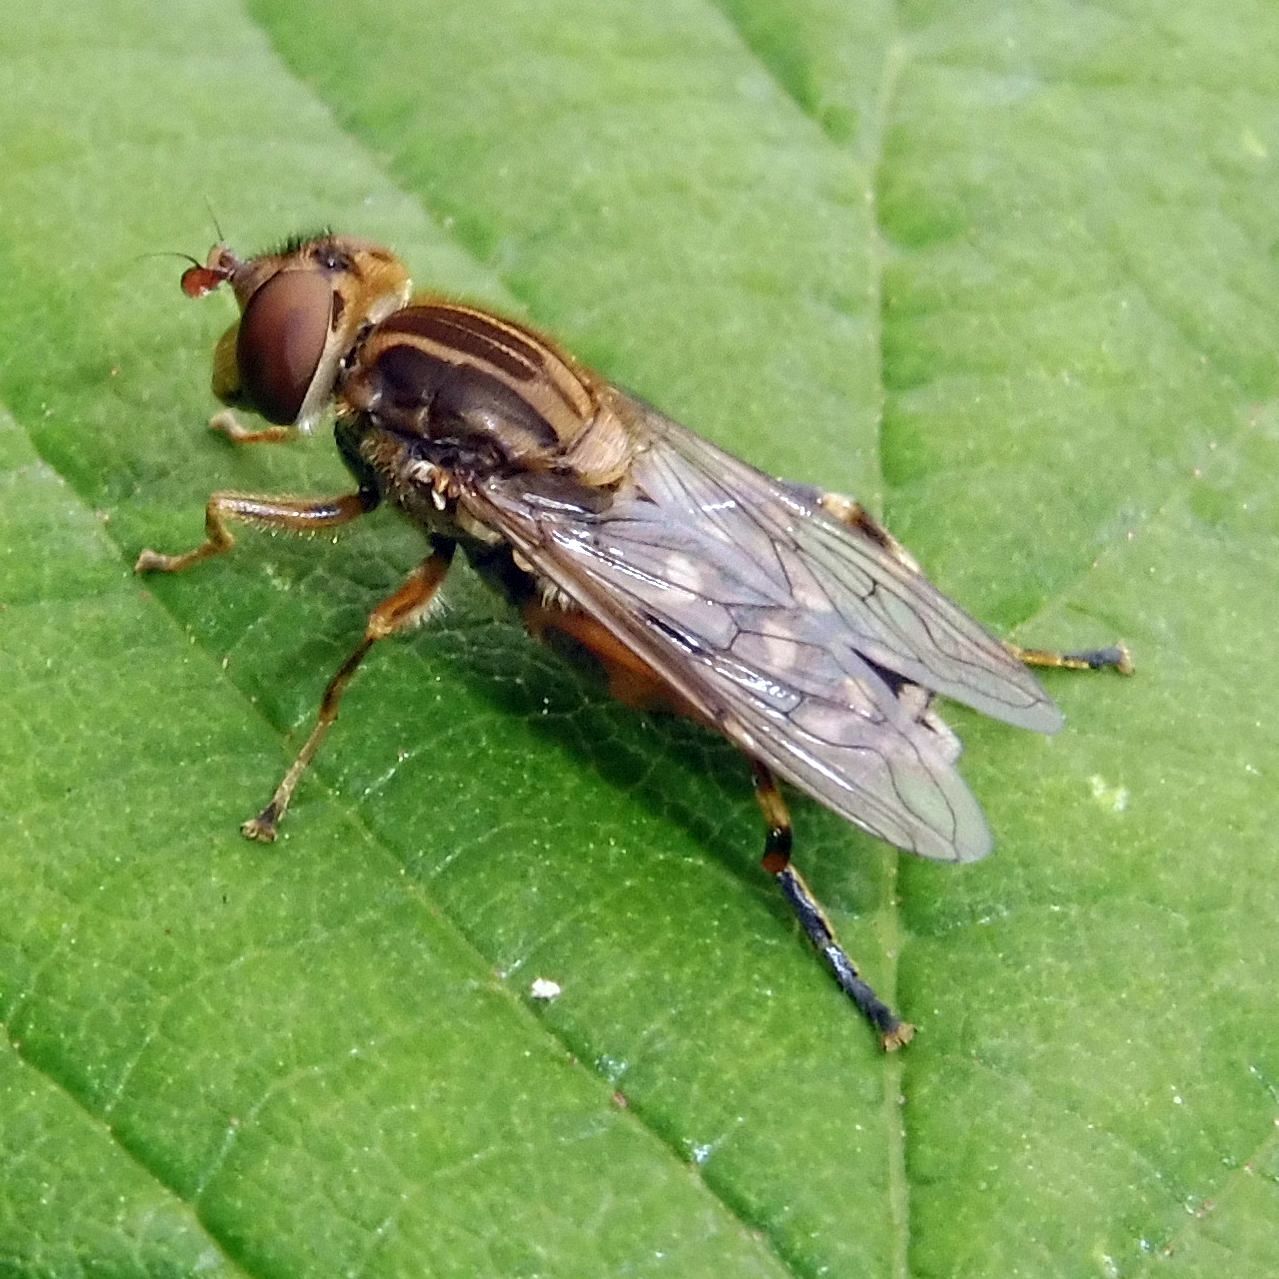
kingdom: Animalia
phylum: Arthropoda
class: Insecta
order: Diptera
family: Syrphidae
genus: Anasimyia
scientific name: Anasimyia contracta
